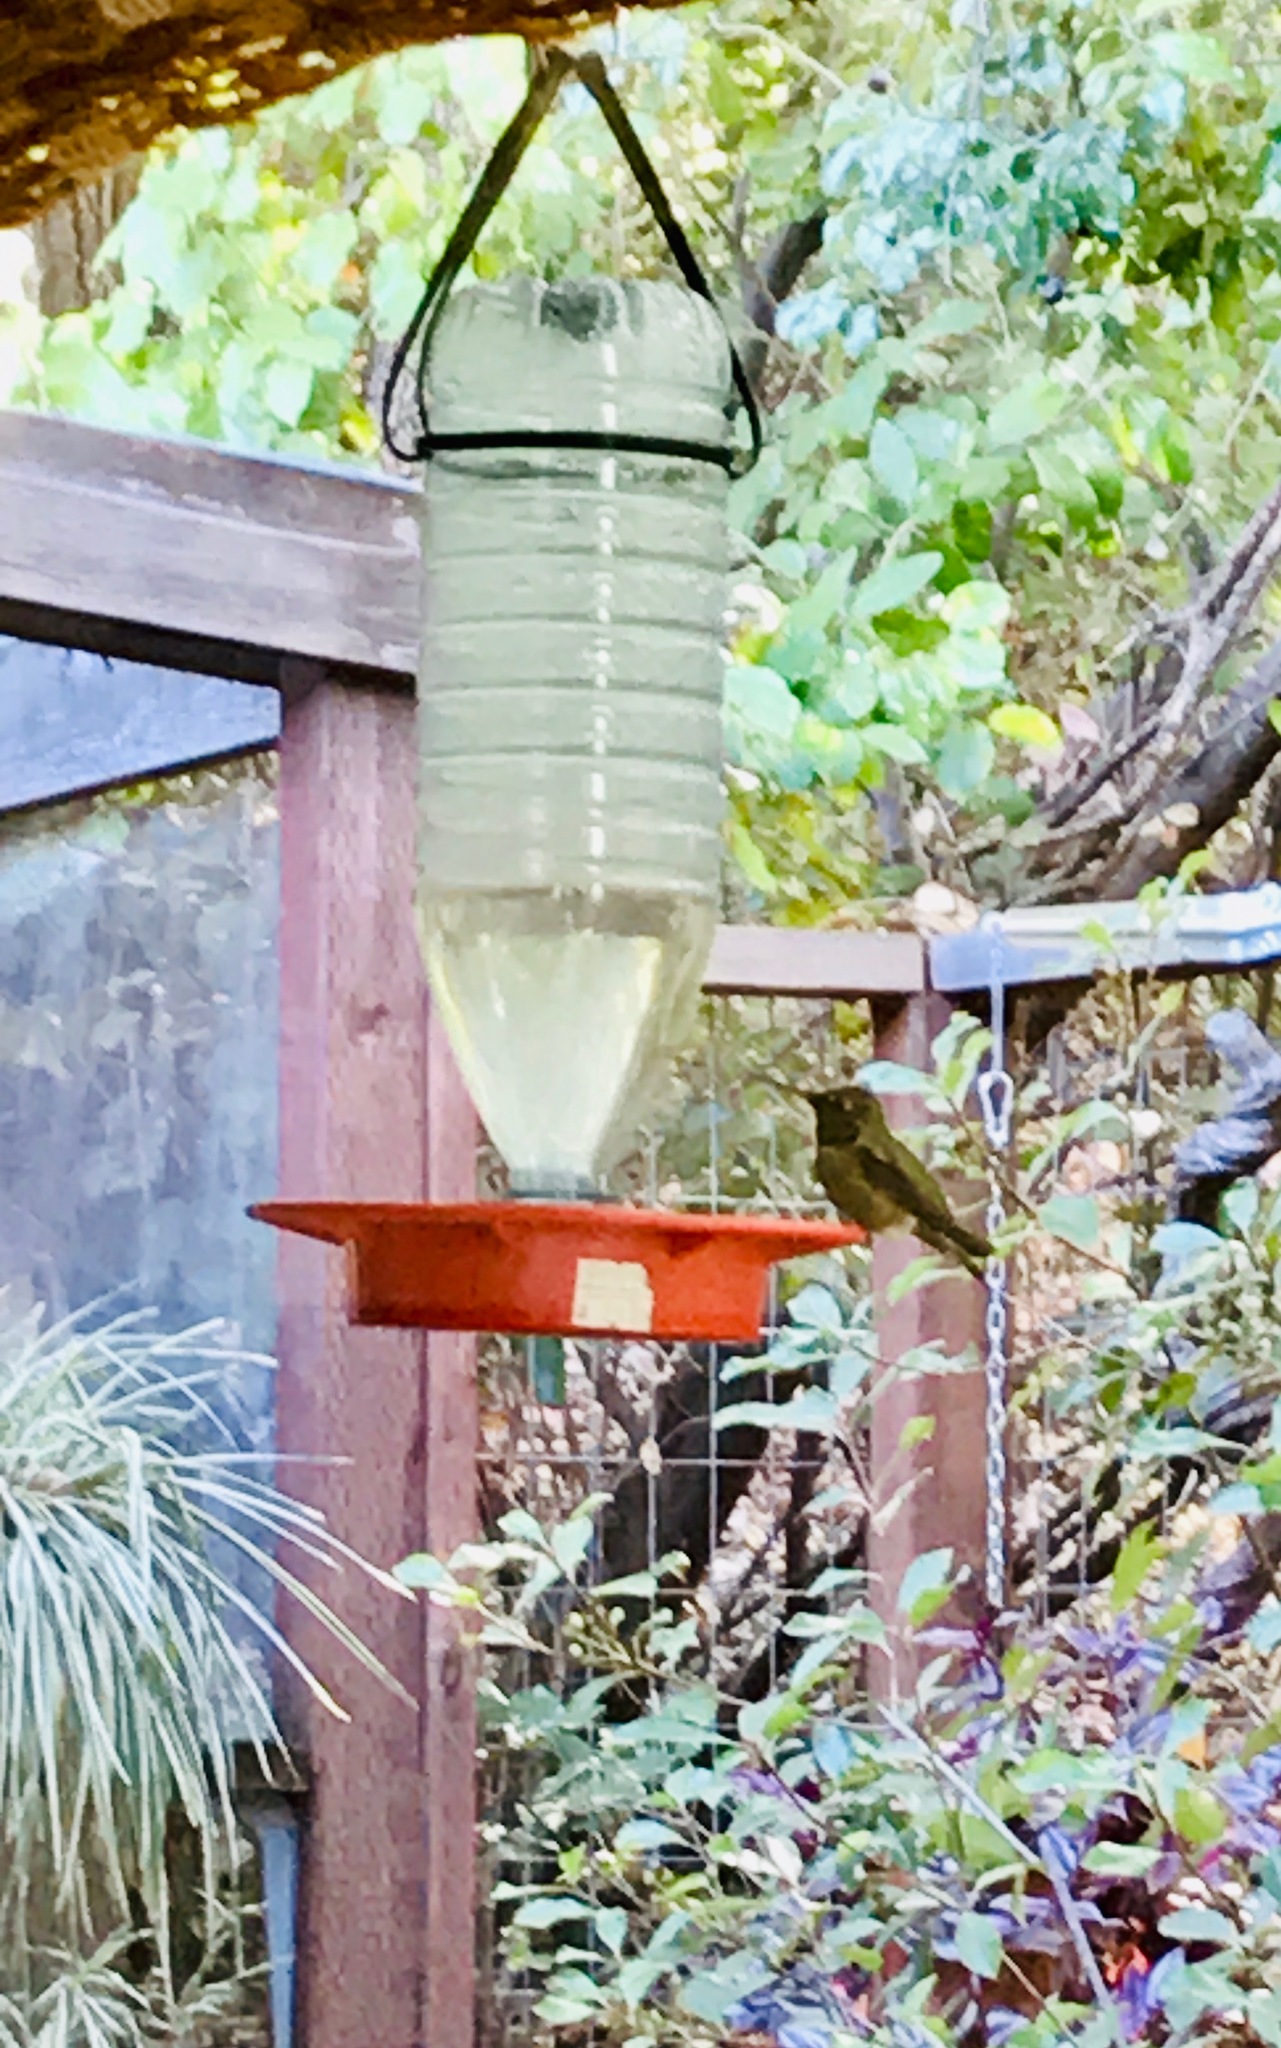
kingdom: Animalia
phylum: Chordata
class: Aves
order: Apodiformes
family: Trochilidae
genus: Calypte
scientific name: Calypte anna
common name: Anna's hummingbird
